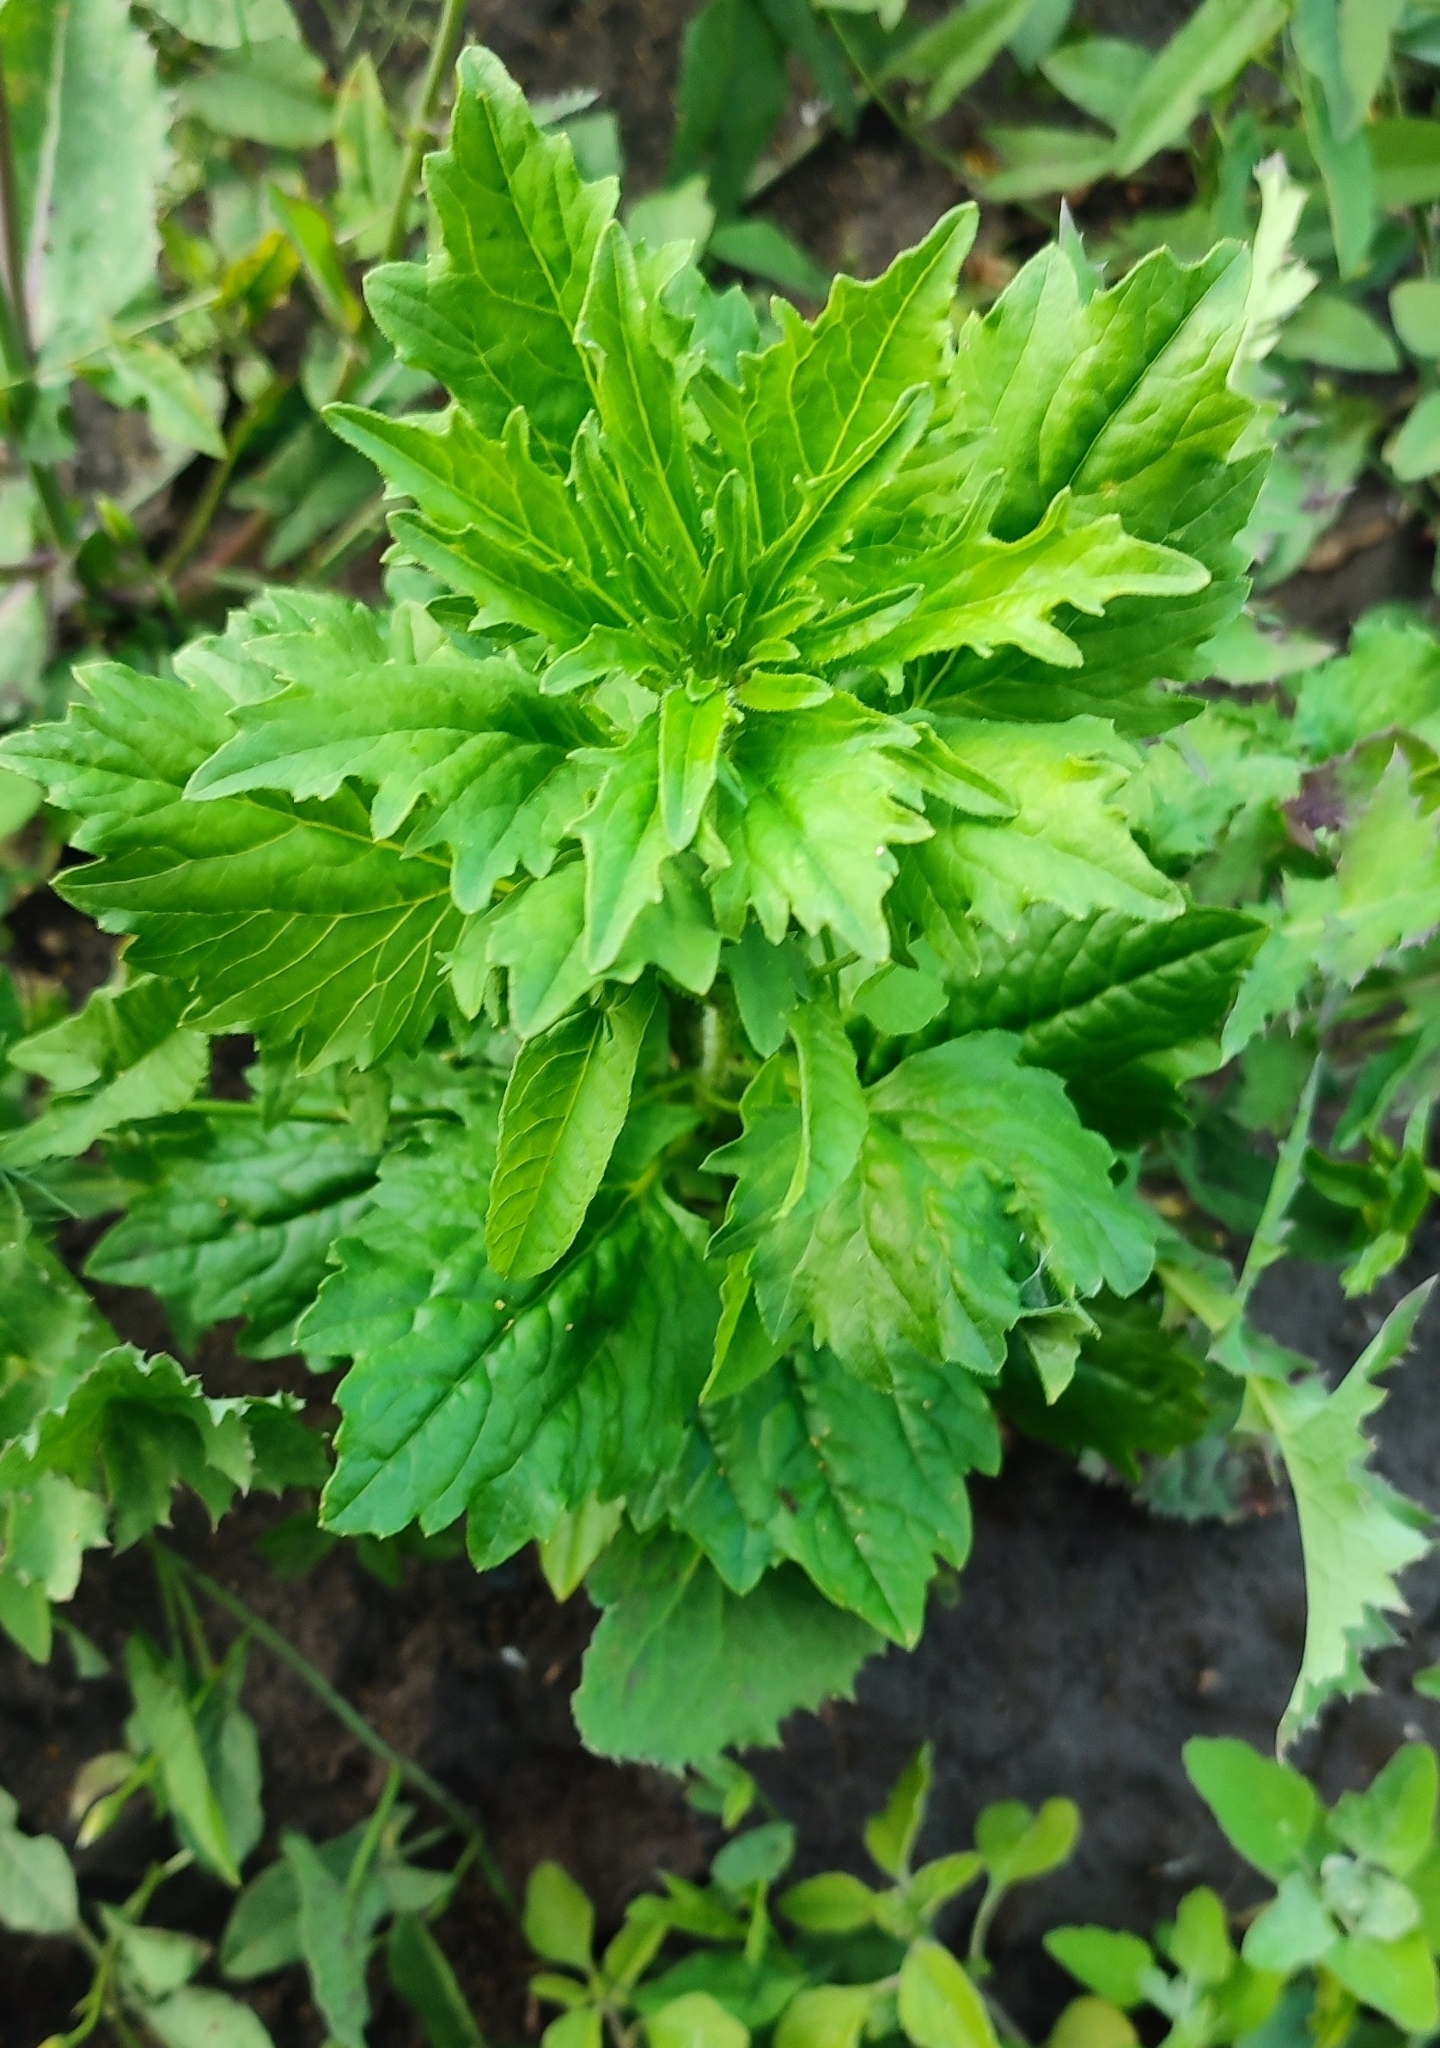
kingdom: Plantae
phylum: Tracheophyta
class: Magnoliopsida
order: Asterales
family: Asteraceae
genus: Callistephus
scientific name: Callistephus chinensis
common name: China aster
